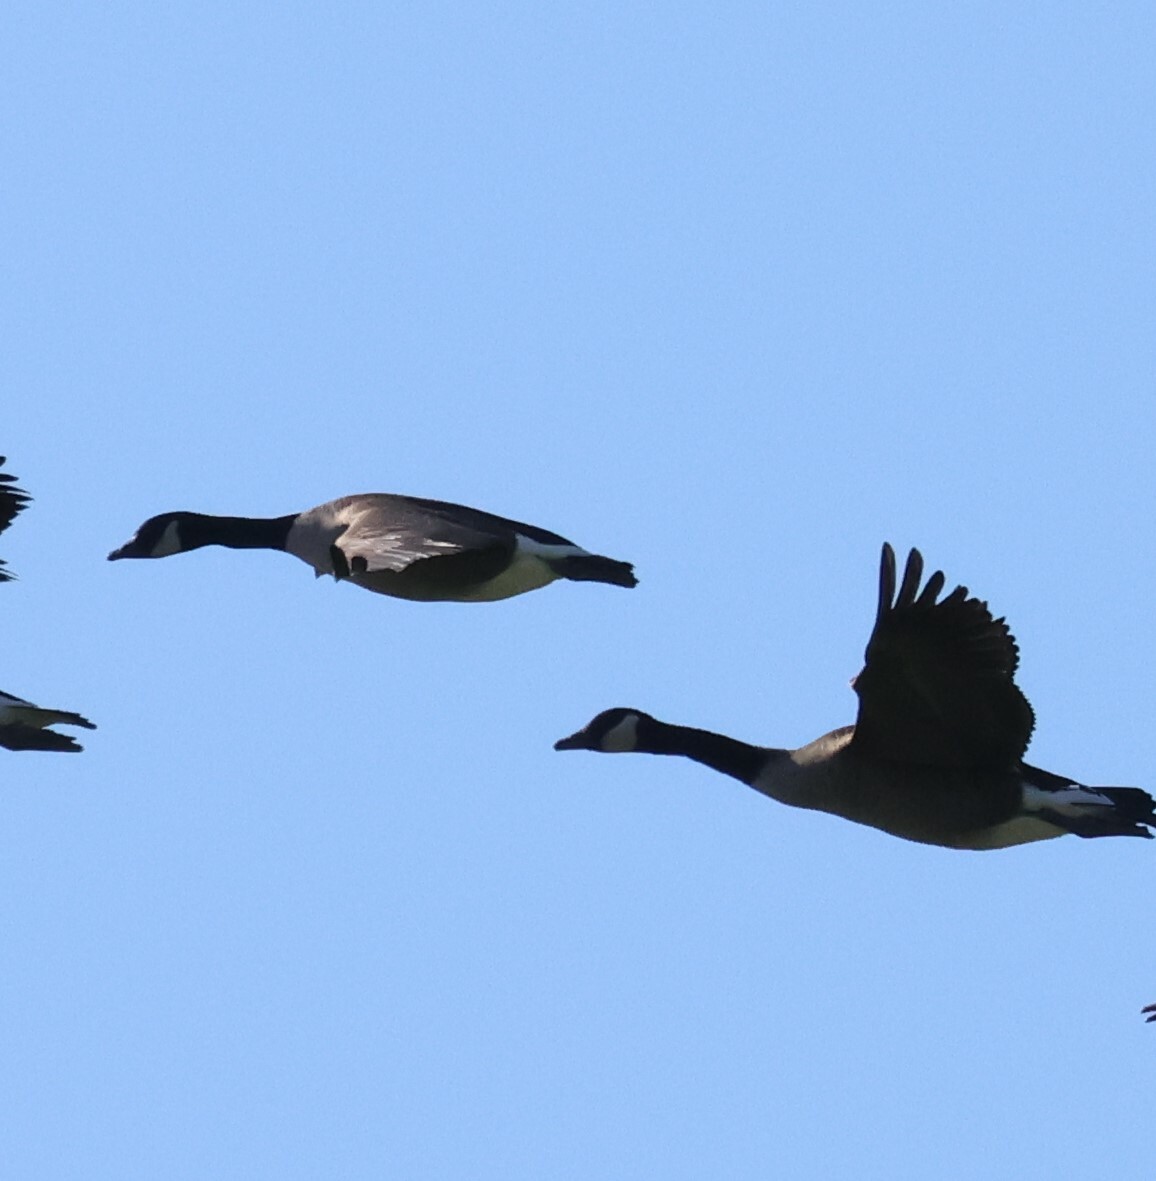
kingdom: Animalia
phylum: Chordata
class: Aves
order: Anseriformes
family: Anatidae
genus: Branta
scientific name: Branta canadensis
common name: Canada goose
